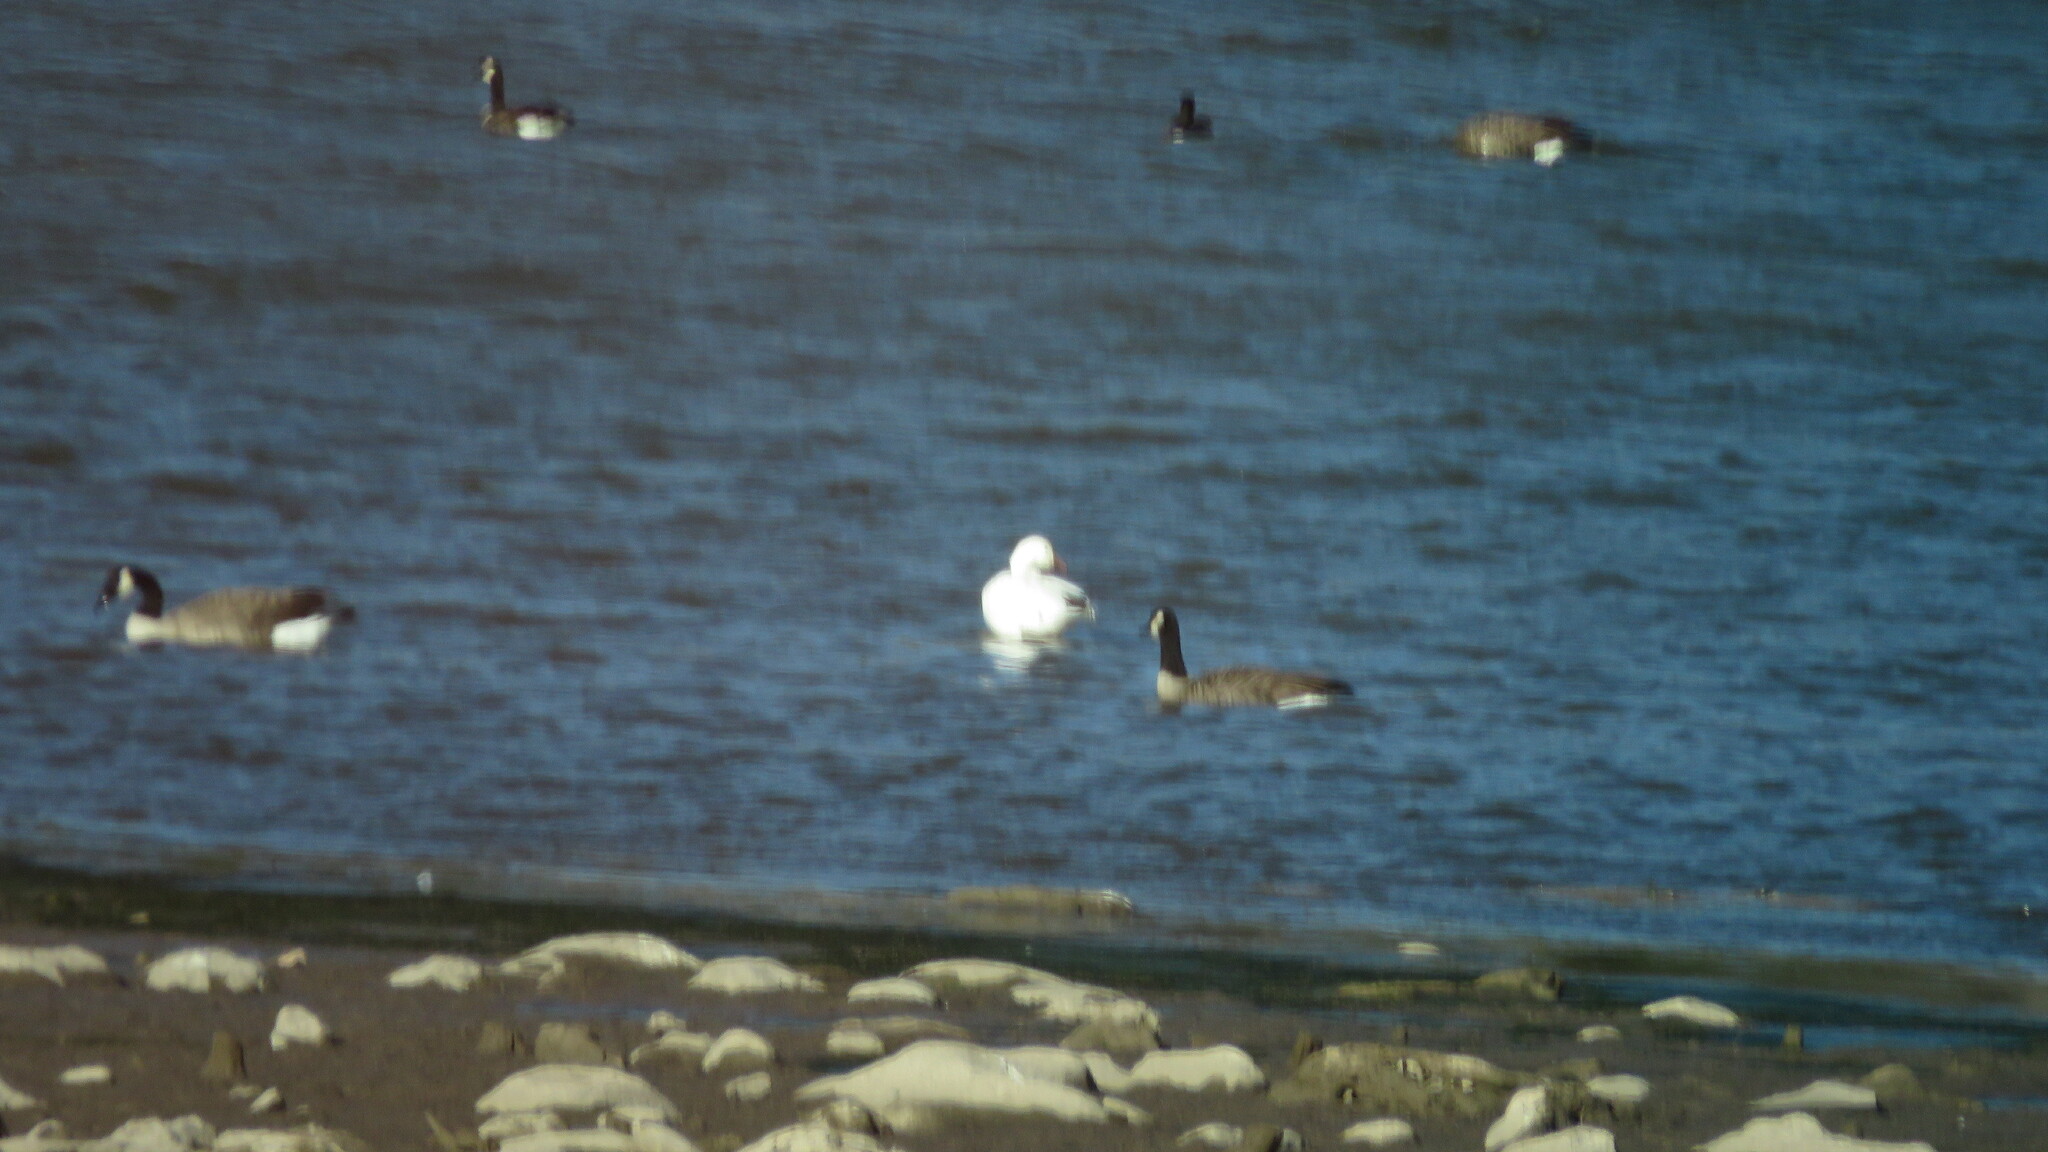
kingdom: Animalia
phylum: Chordata
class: Aves
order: Anseriformes
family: Anatidae
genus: Anser
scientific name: Anser caerulescens
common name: Snow goose
